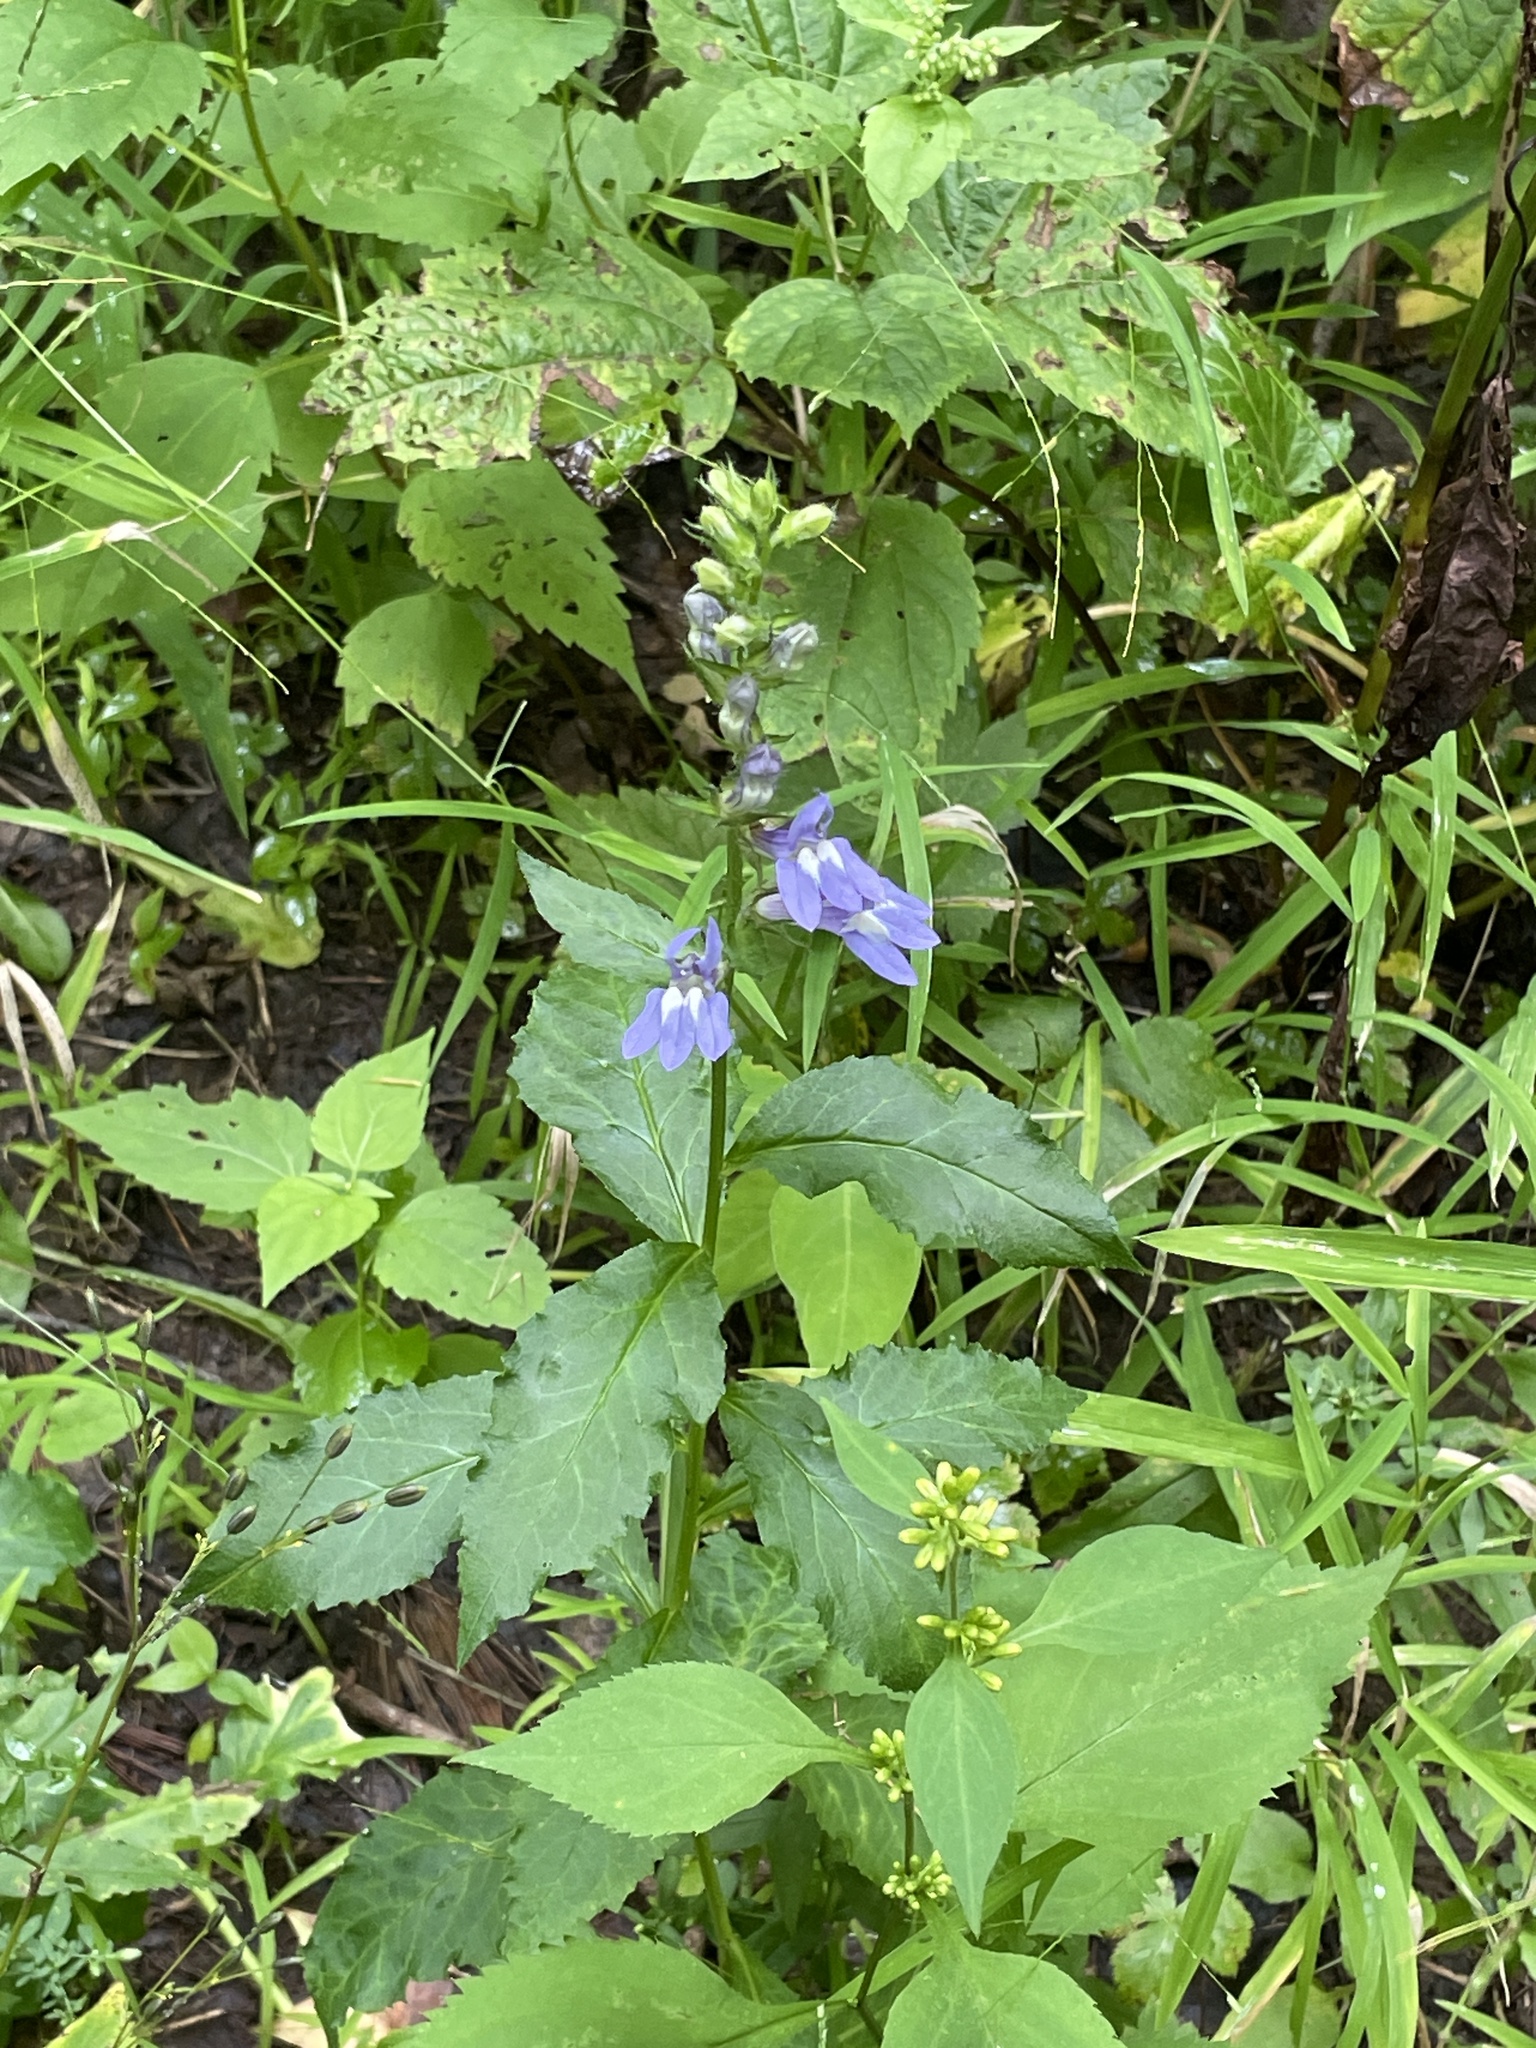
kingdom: Plantae
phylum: Tracheophyta
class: Magnoliopsida
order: Asterales
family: Campanulaceae
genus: Lobelia
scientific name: Lobelia siphilitica
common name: Great lobelia
